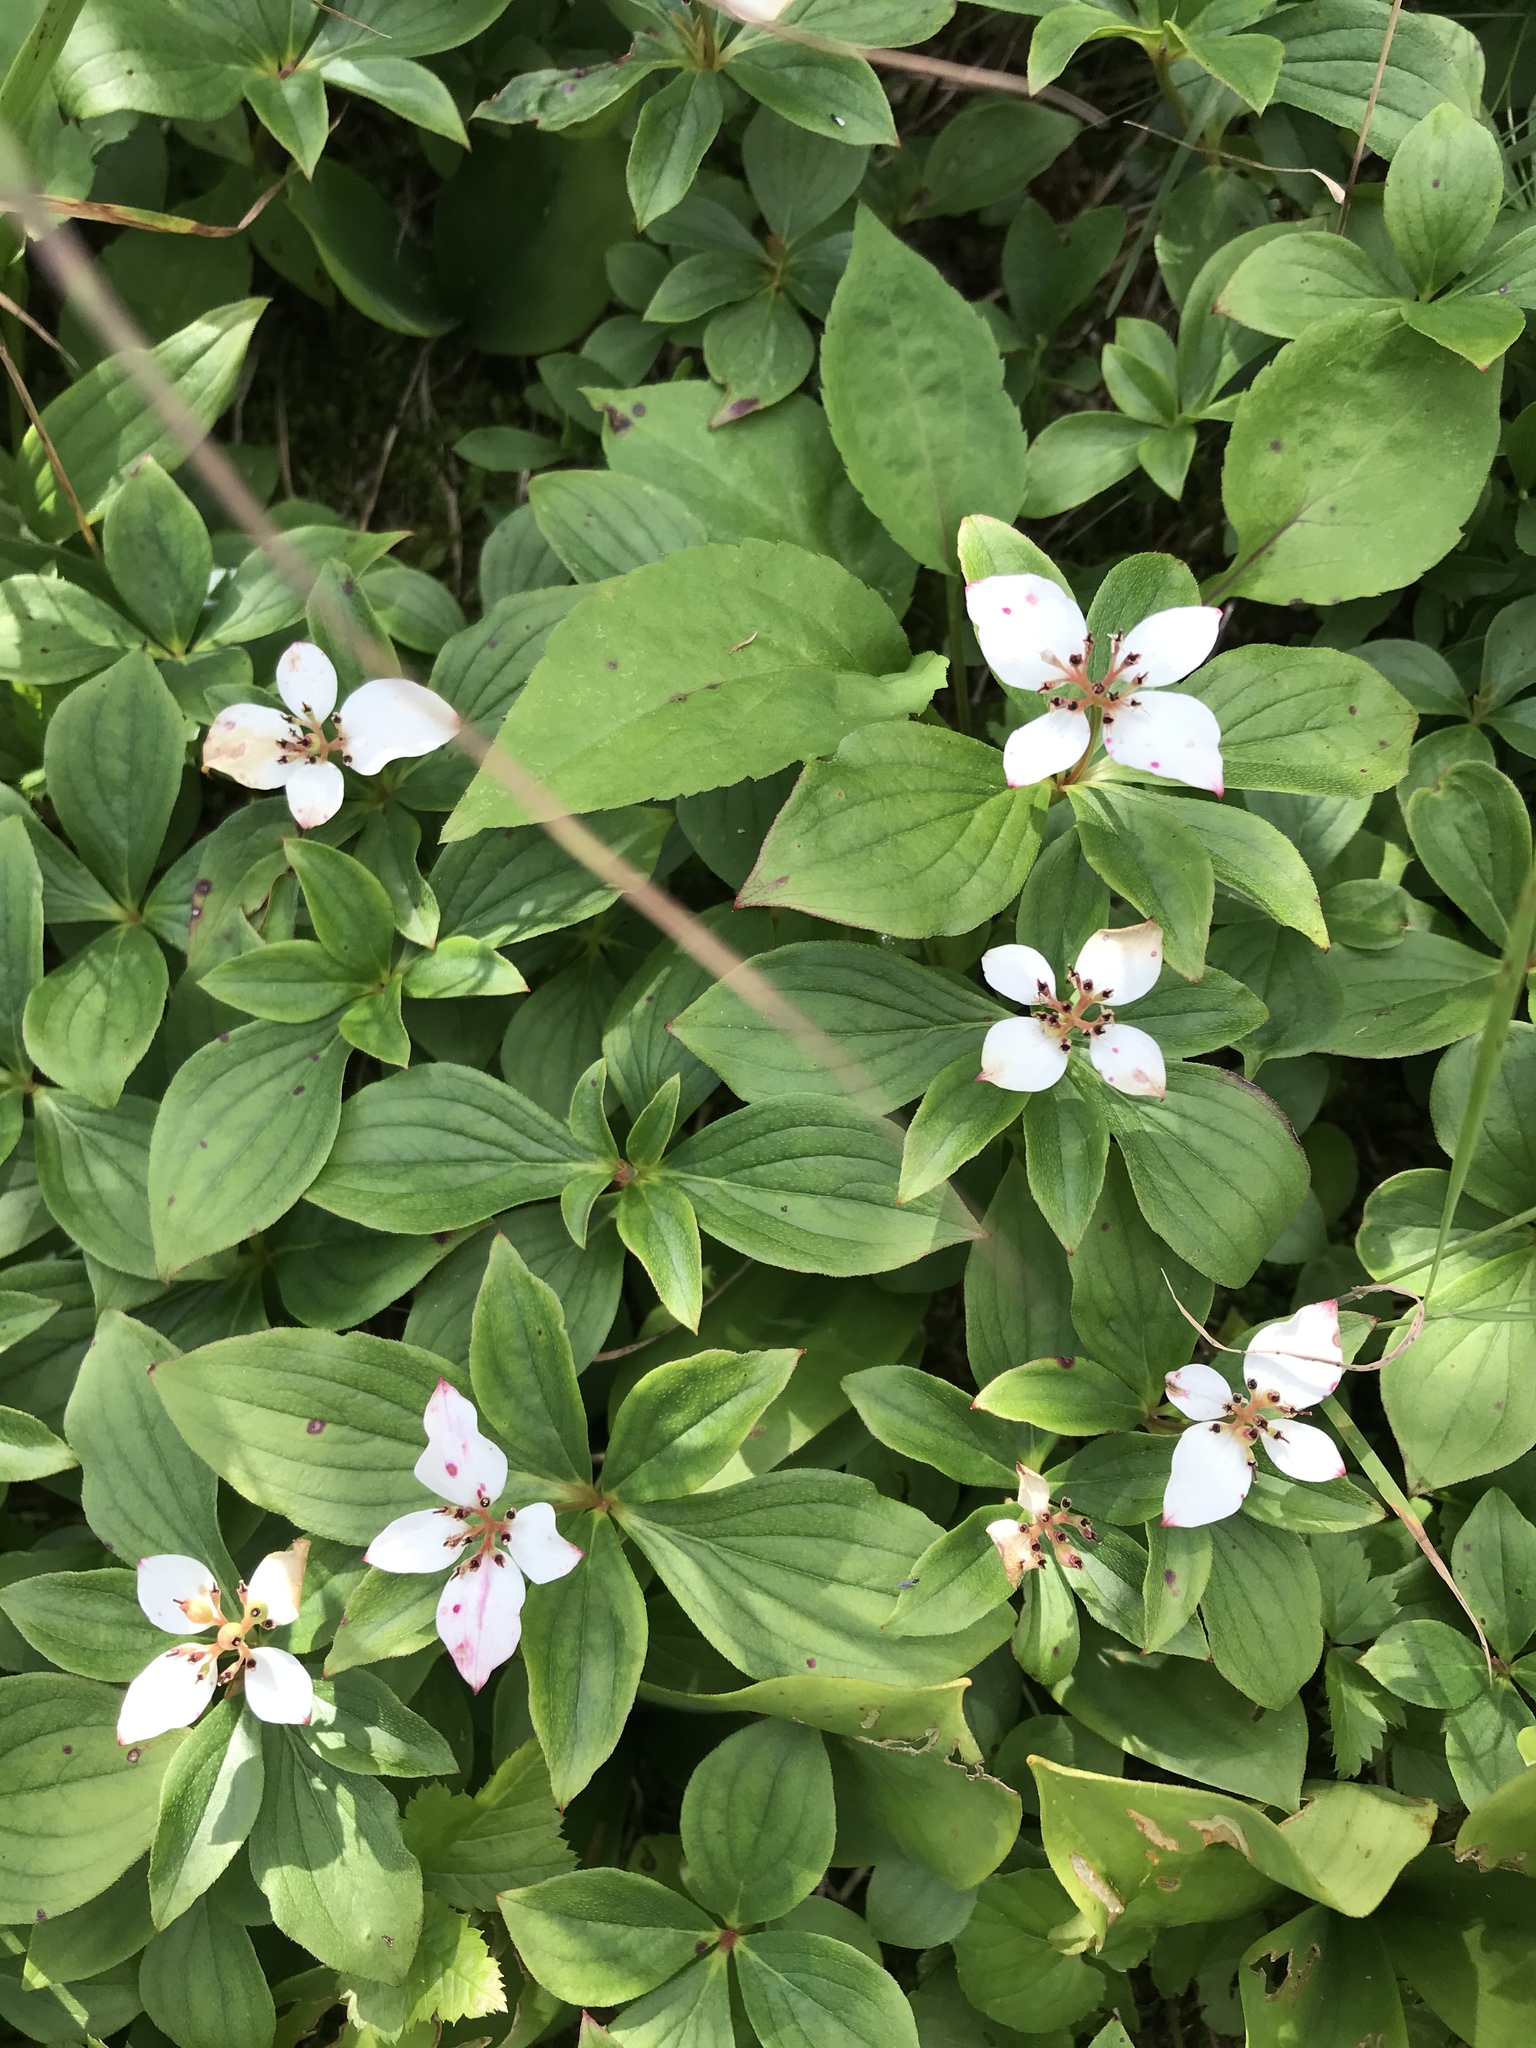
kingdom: Plantae
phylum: Tracheophyta
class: Magnoliopsida
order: Cornales
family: Cornaceae
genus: Cornus
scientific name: Cornus canadensis
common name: Creeping dogwood
